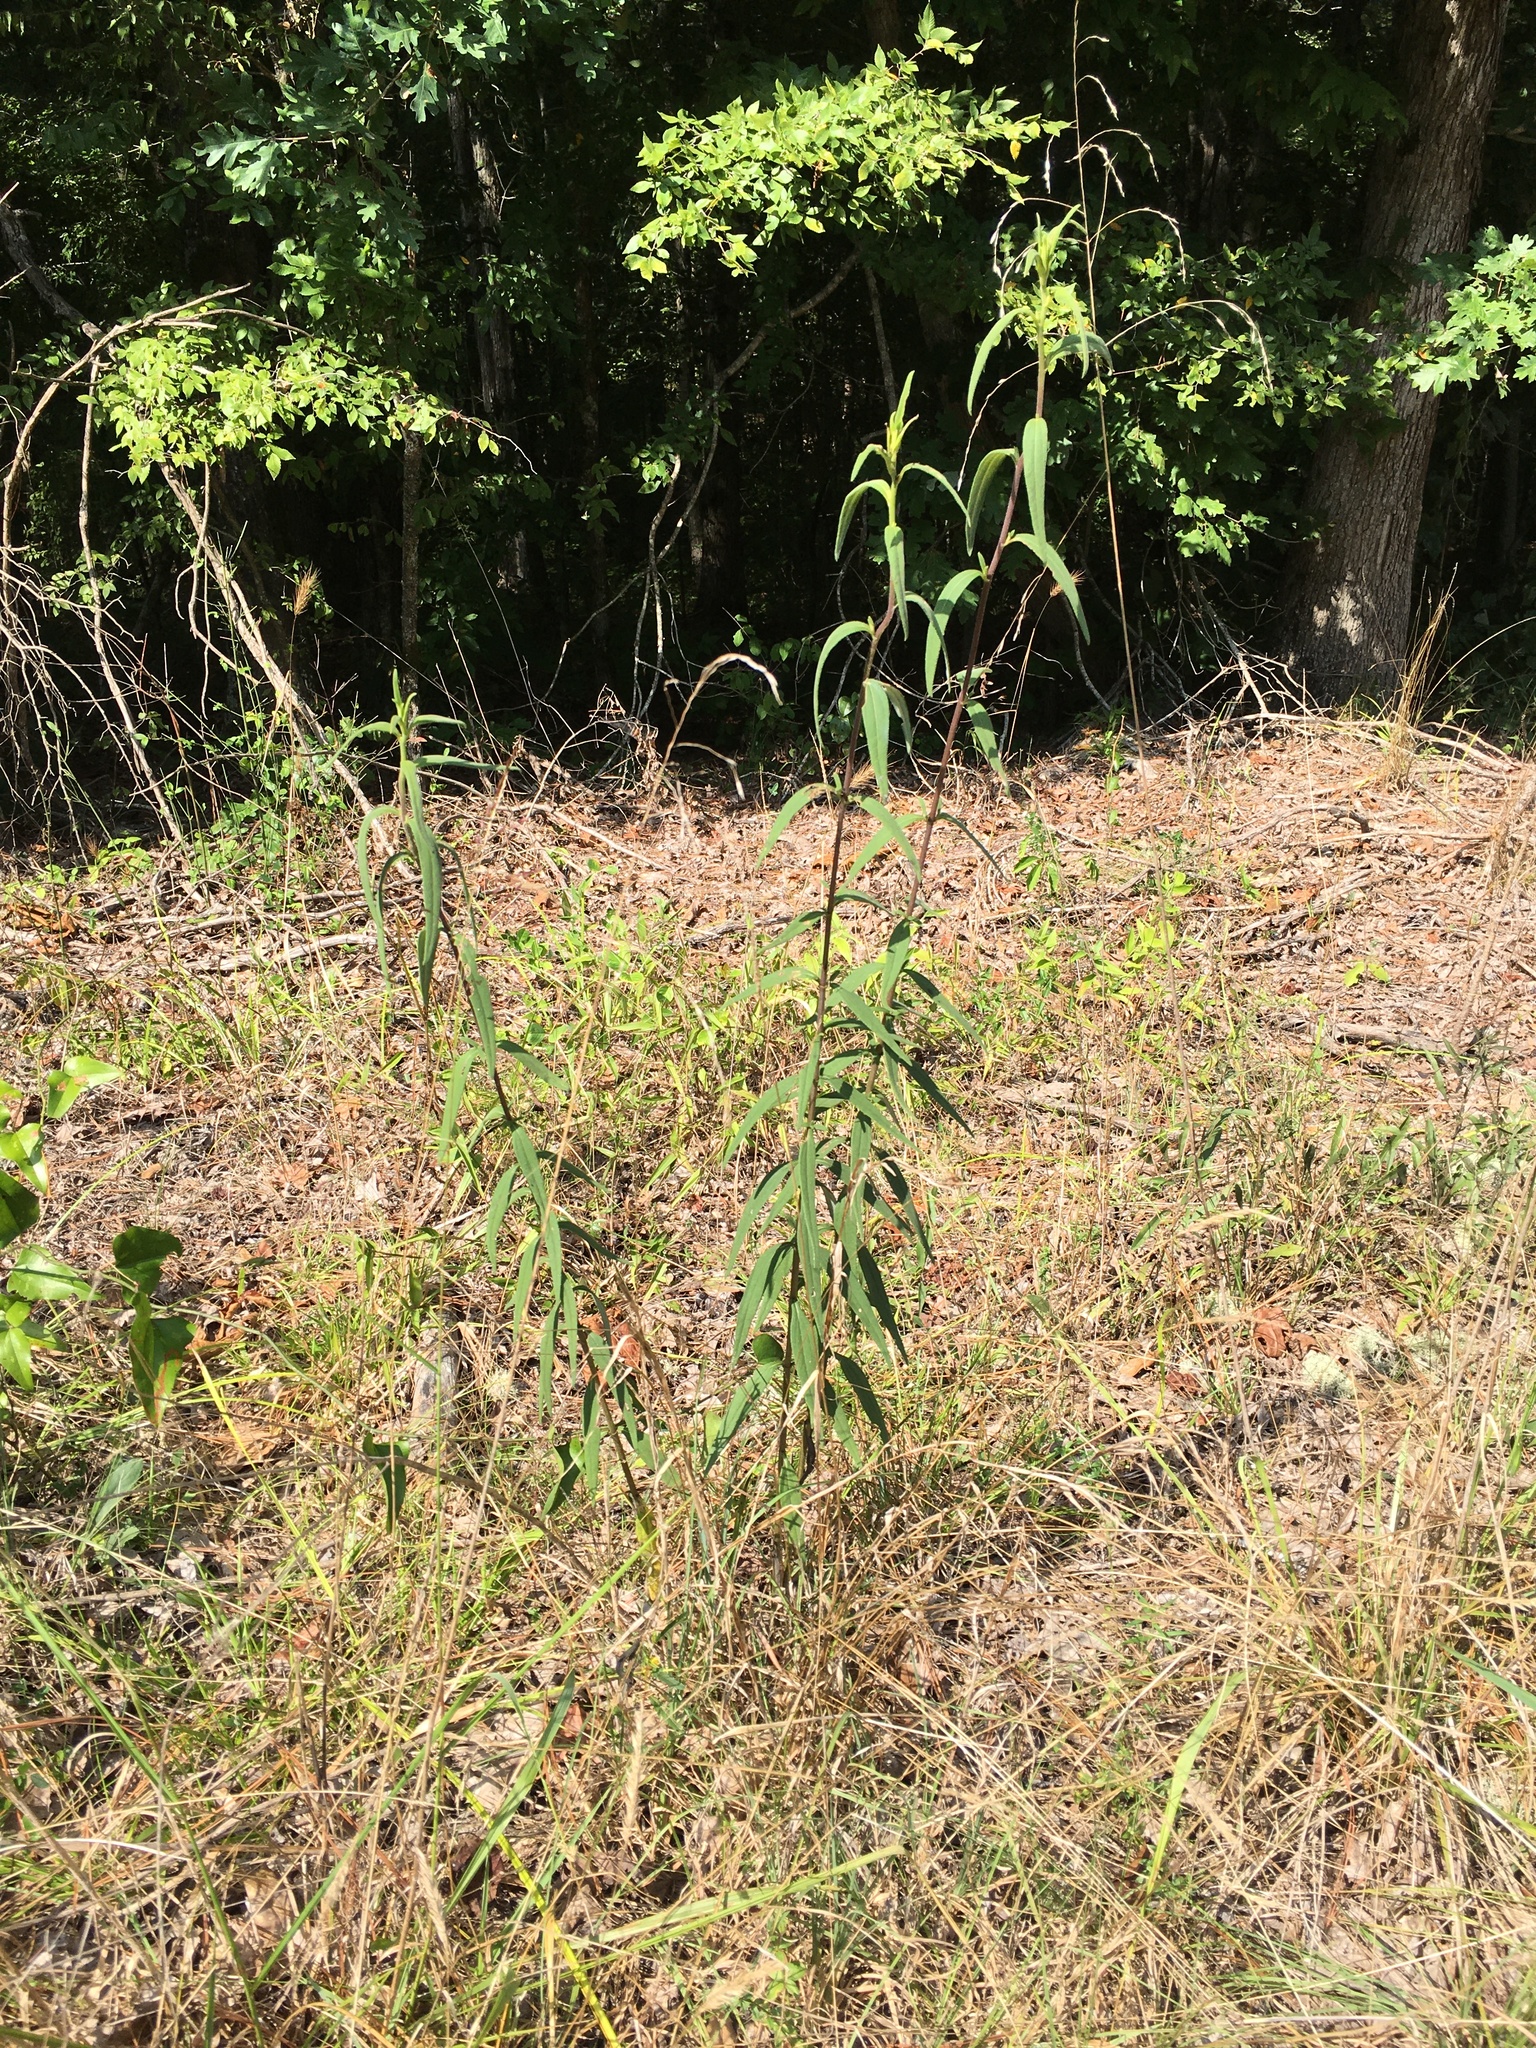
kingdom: Plantae
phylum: Tracheophyta
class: Magnoliopsida
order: Asterales
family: Asteraceae
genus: Helianthus
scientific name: Helianthus schweinitzii
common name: Schweinitz's sunflower
